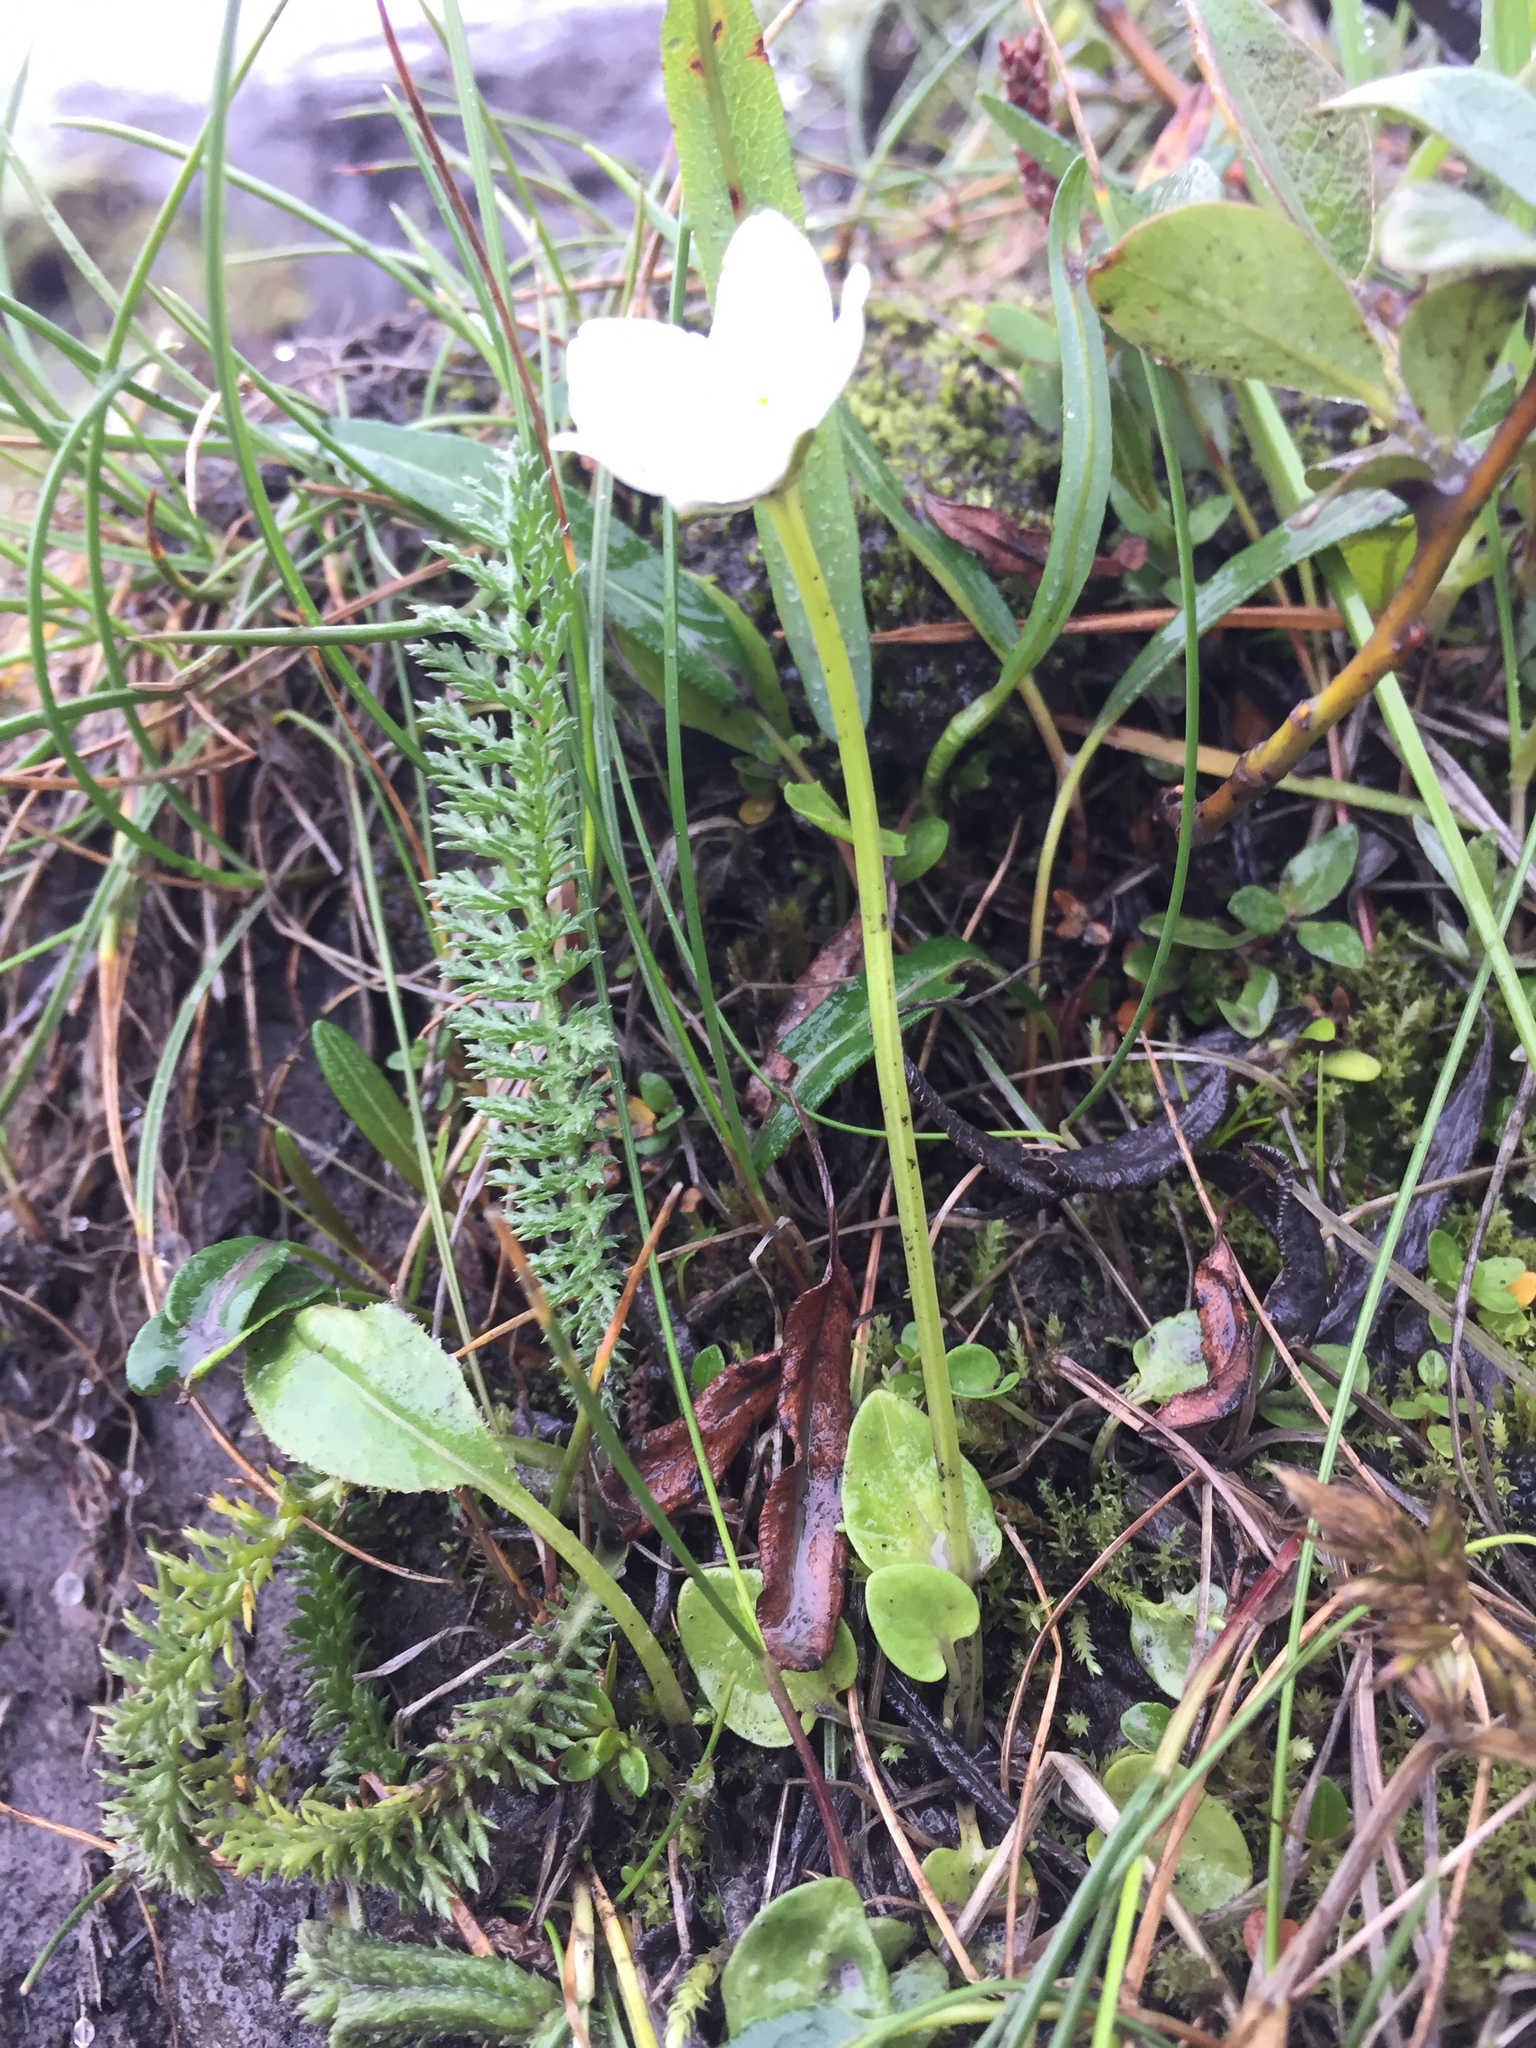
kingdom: Plantae
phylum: Tracheophyta
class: Magnoliopsida
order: Celastrales
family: Parnassiaceae
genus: Parnassia
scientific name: Parnassia palustris
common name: Grass-of-parnassus
